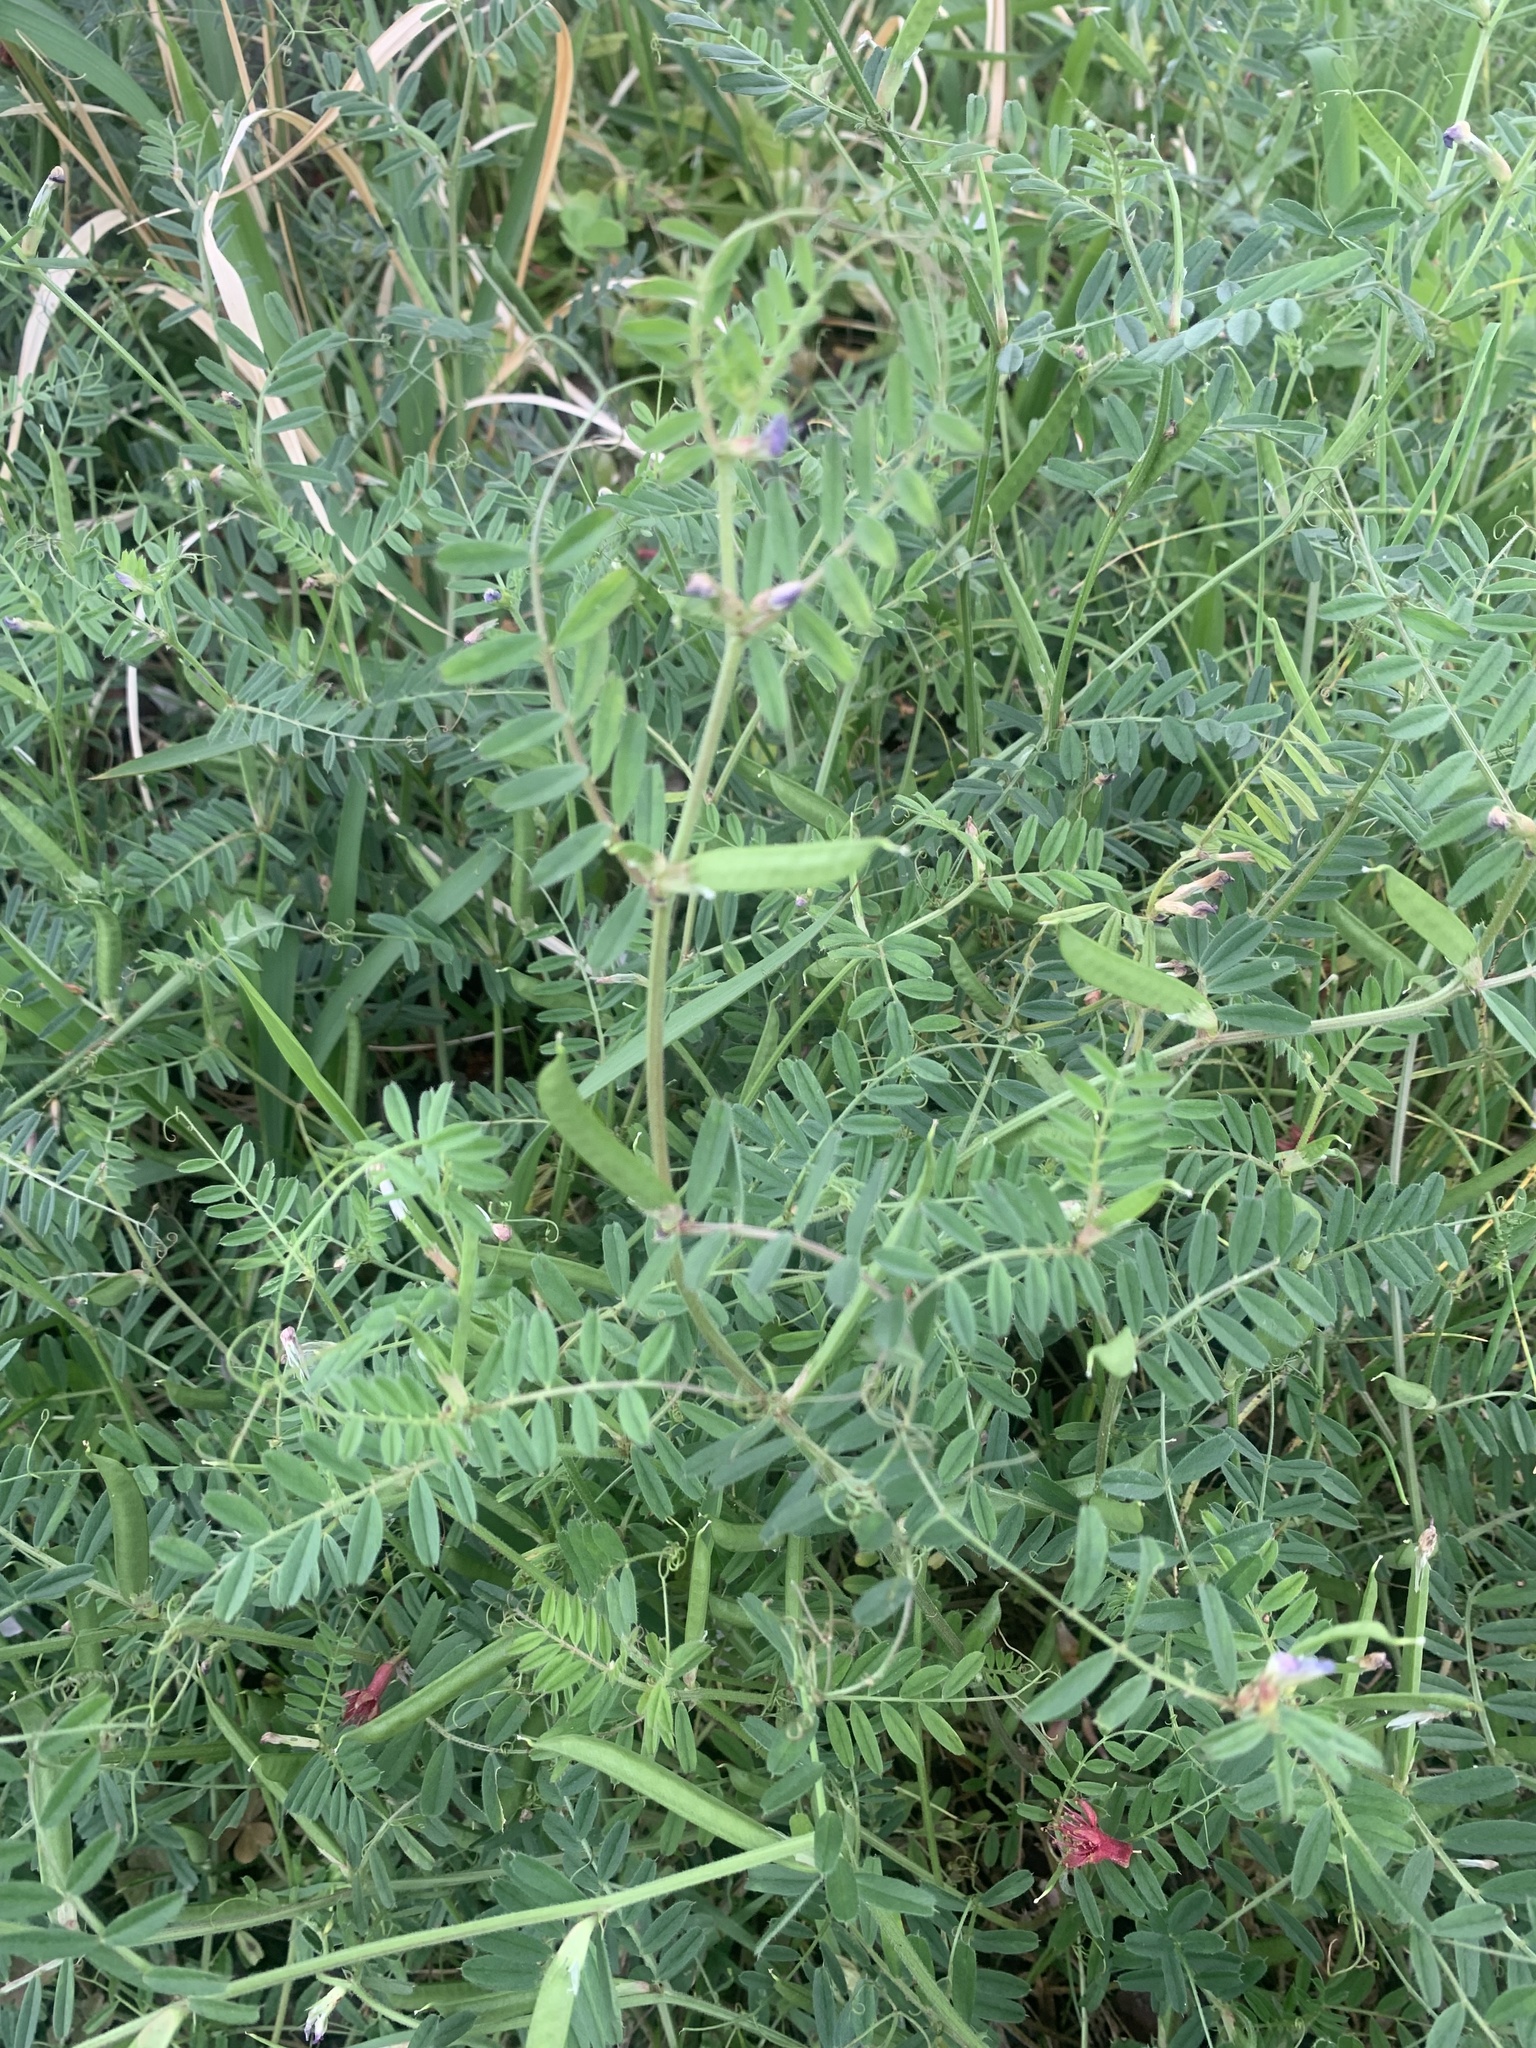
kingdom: Plantae
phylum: Tracheophyta
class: Magnoliopsida
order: Fabales
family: Fabaceae
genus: Vicia
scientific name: Vicia sativa
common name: Garden vetch
